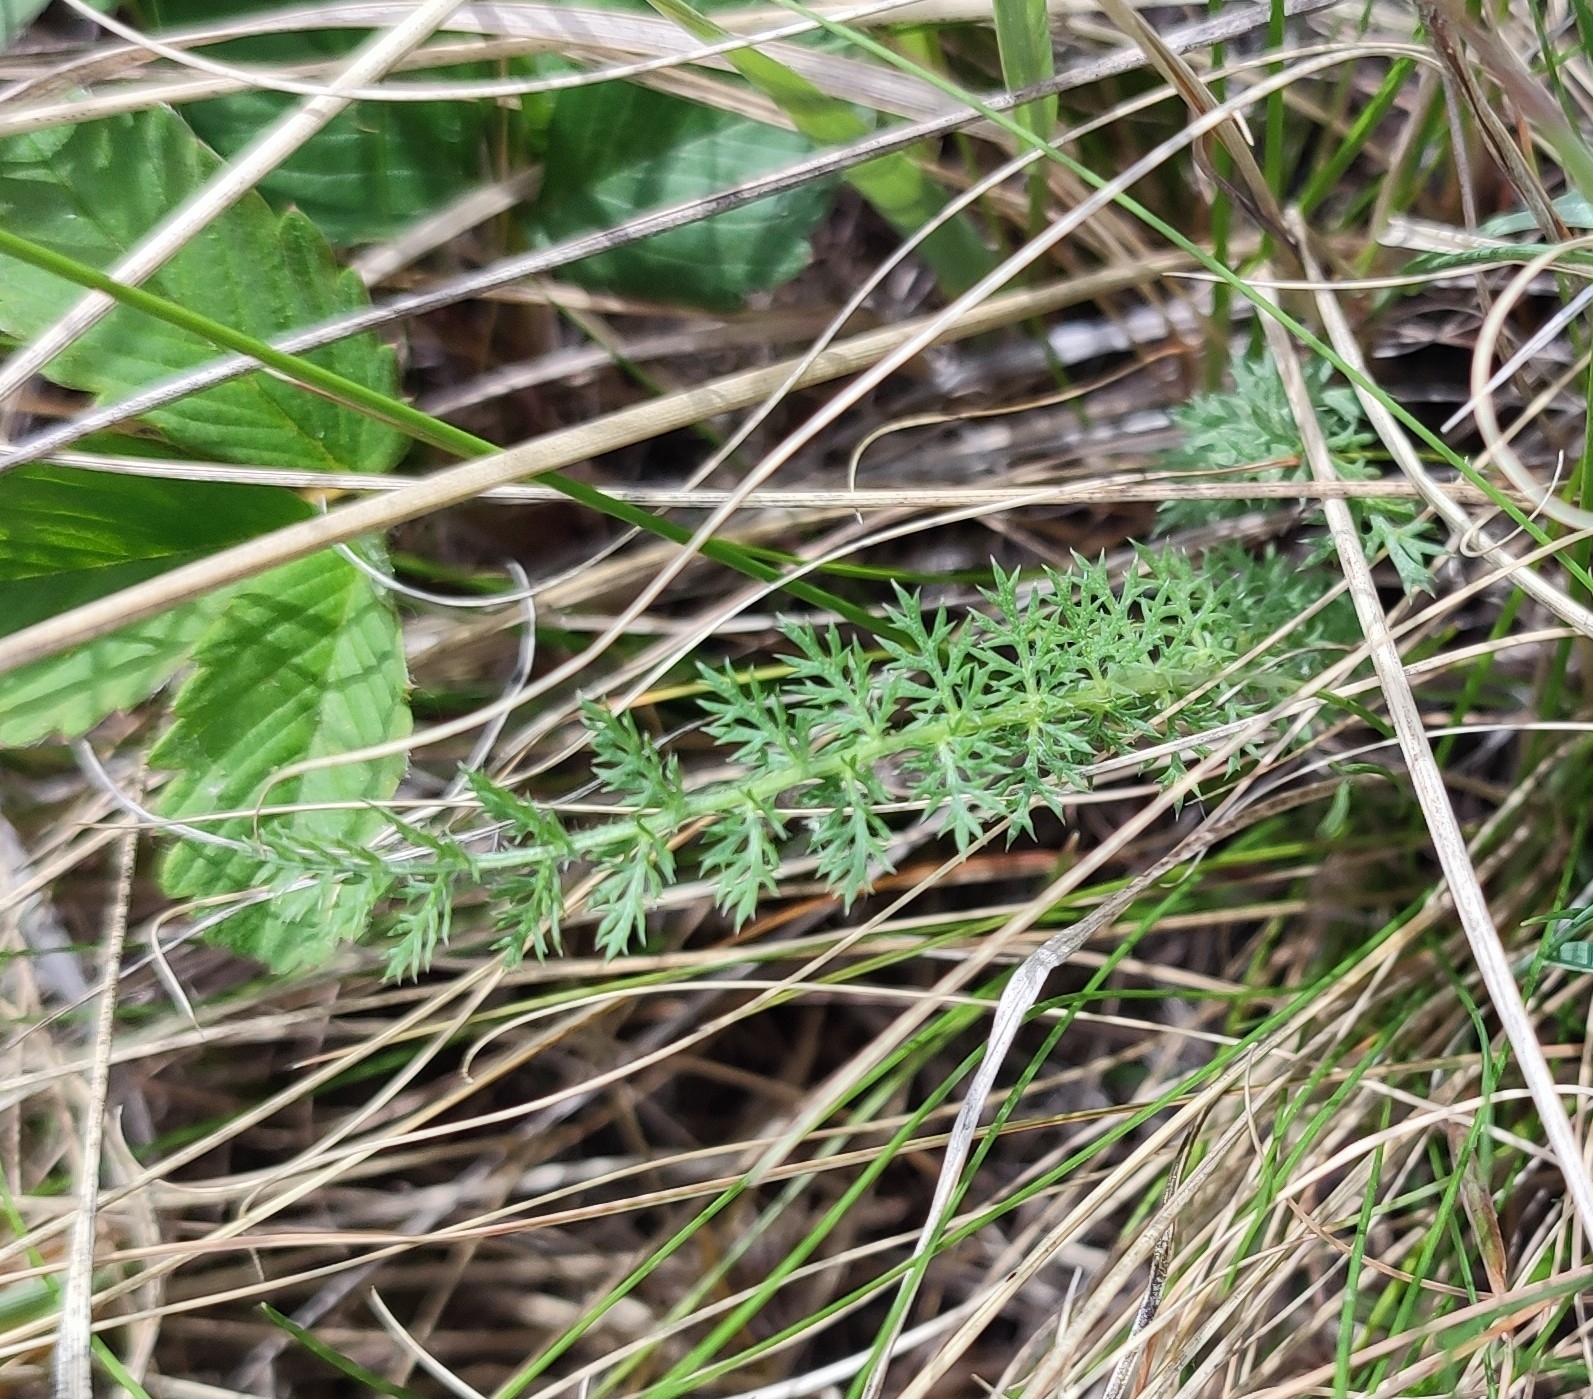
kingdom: Plantae
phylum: Tracheophyta
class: Magnoliopsida
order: Asterales
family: Asteraceae
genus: Achillea
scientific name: Achillea millefolium
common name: Yarrow
